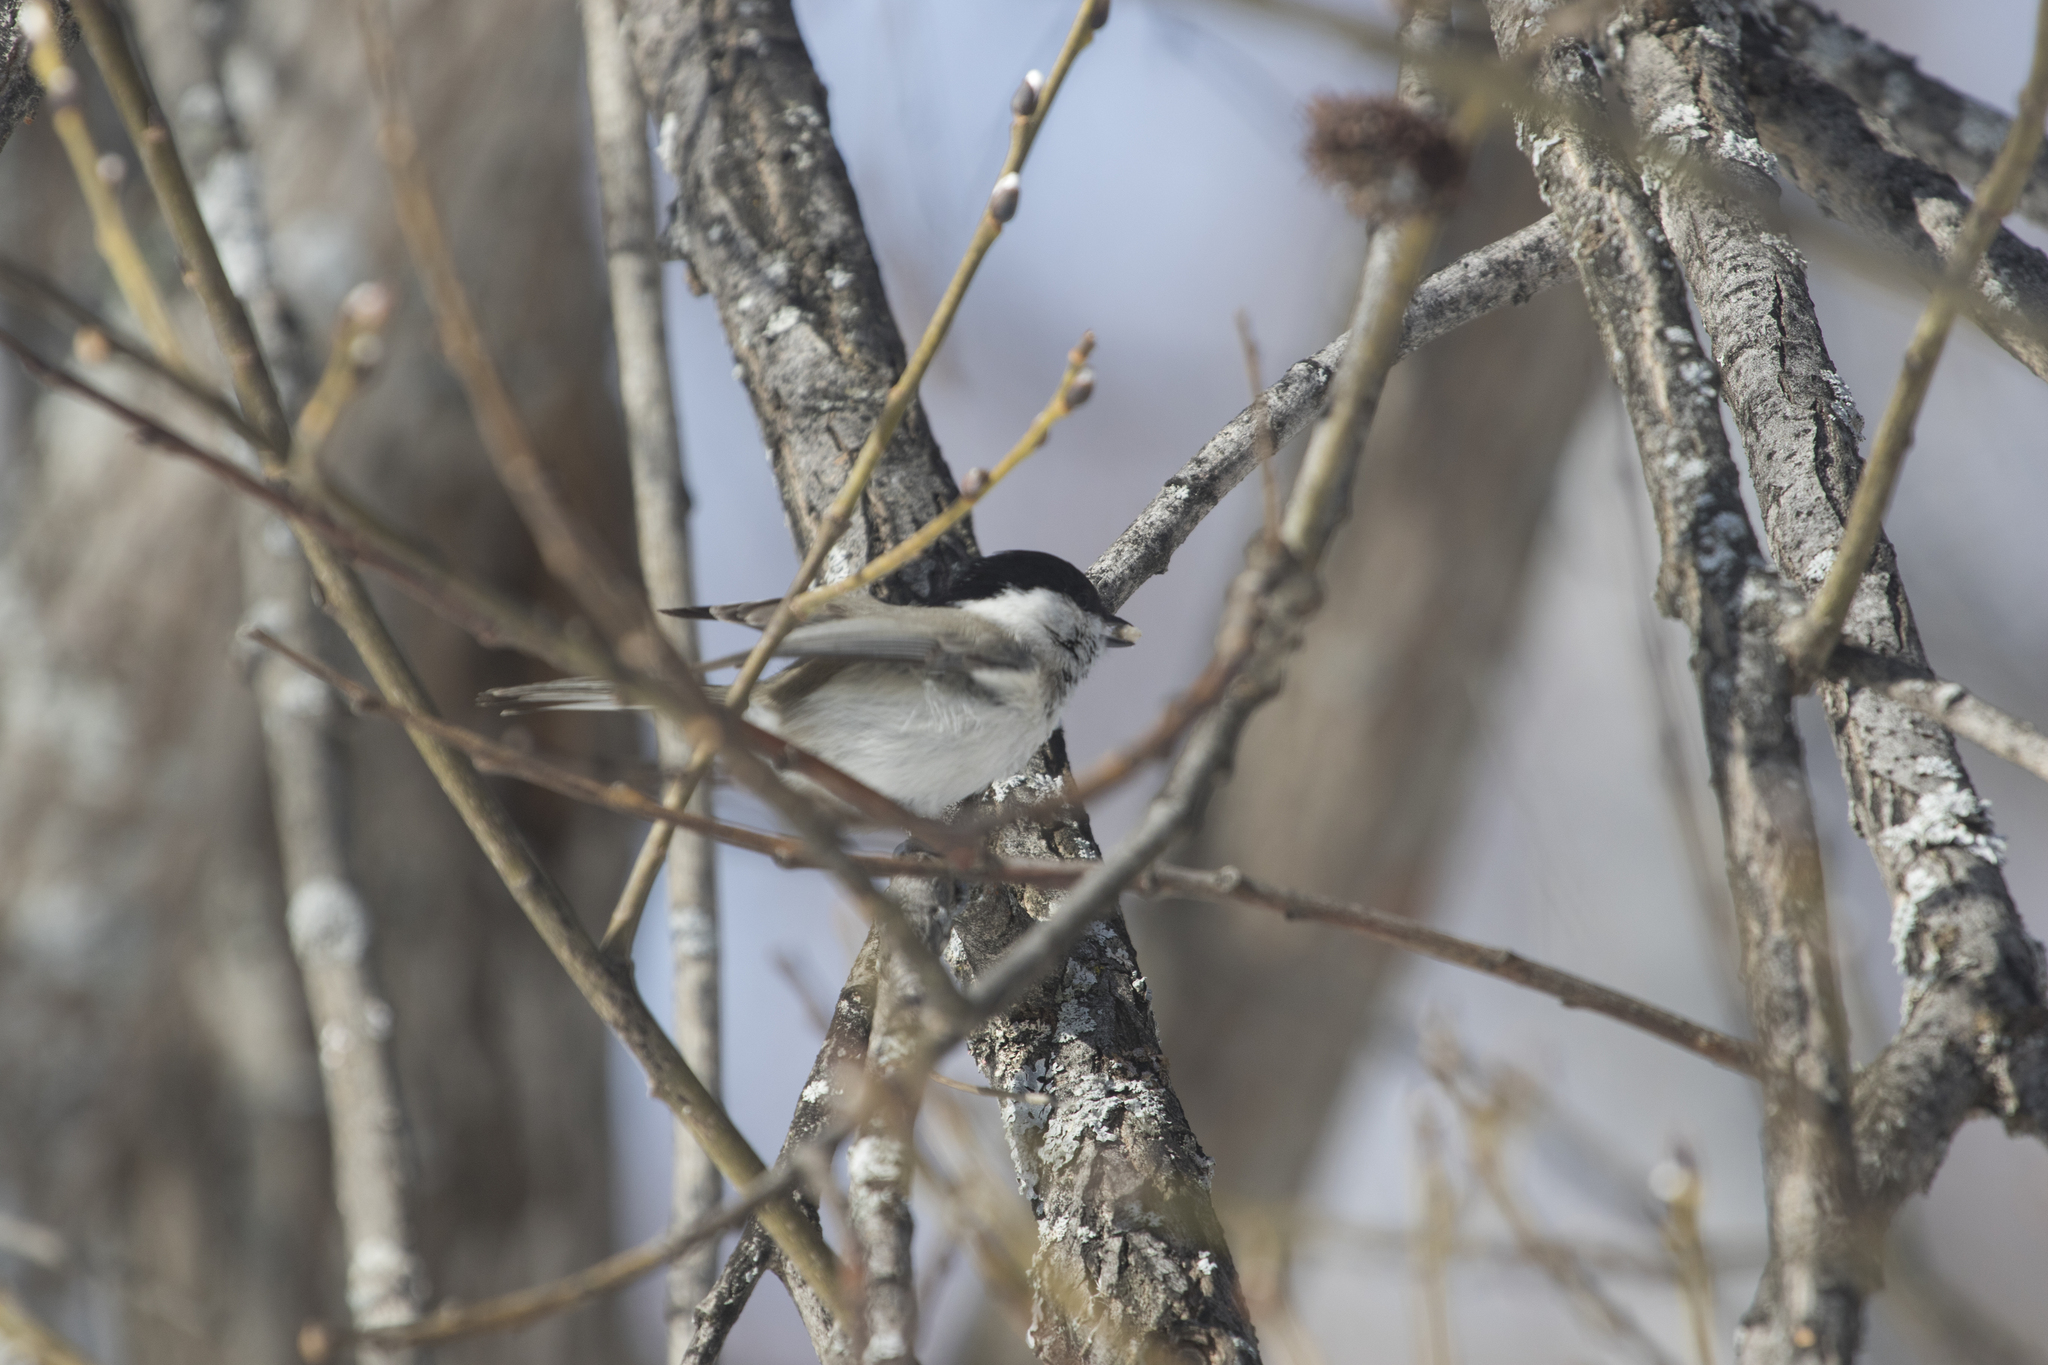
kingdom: Animalia
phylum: Chordata
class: Aves
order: Passeriformes
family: Paridae
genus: Poecile
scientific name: Poecile montanus
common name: Willow tit
